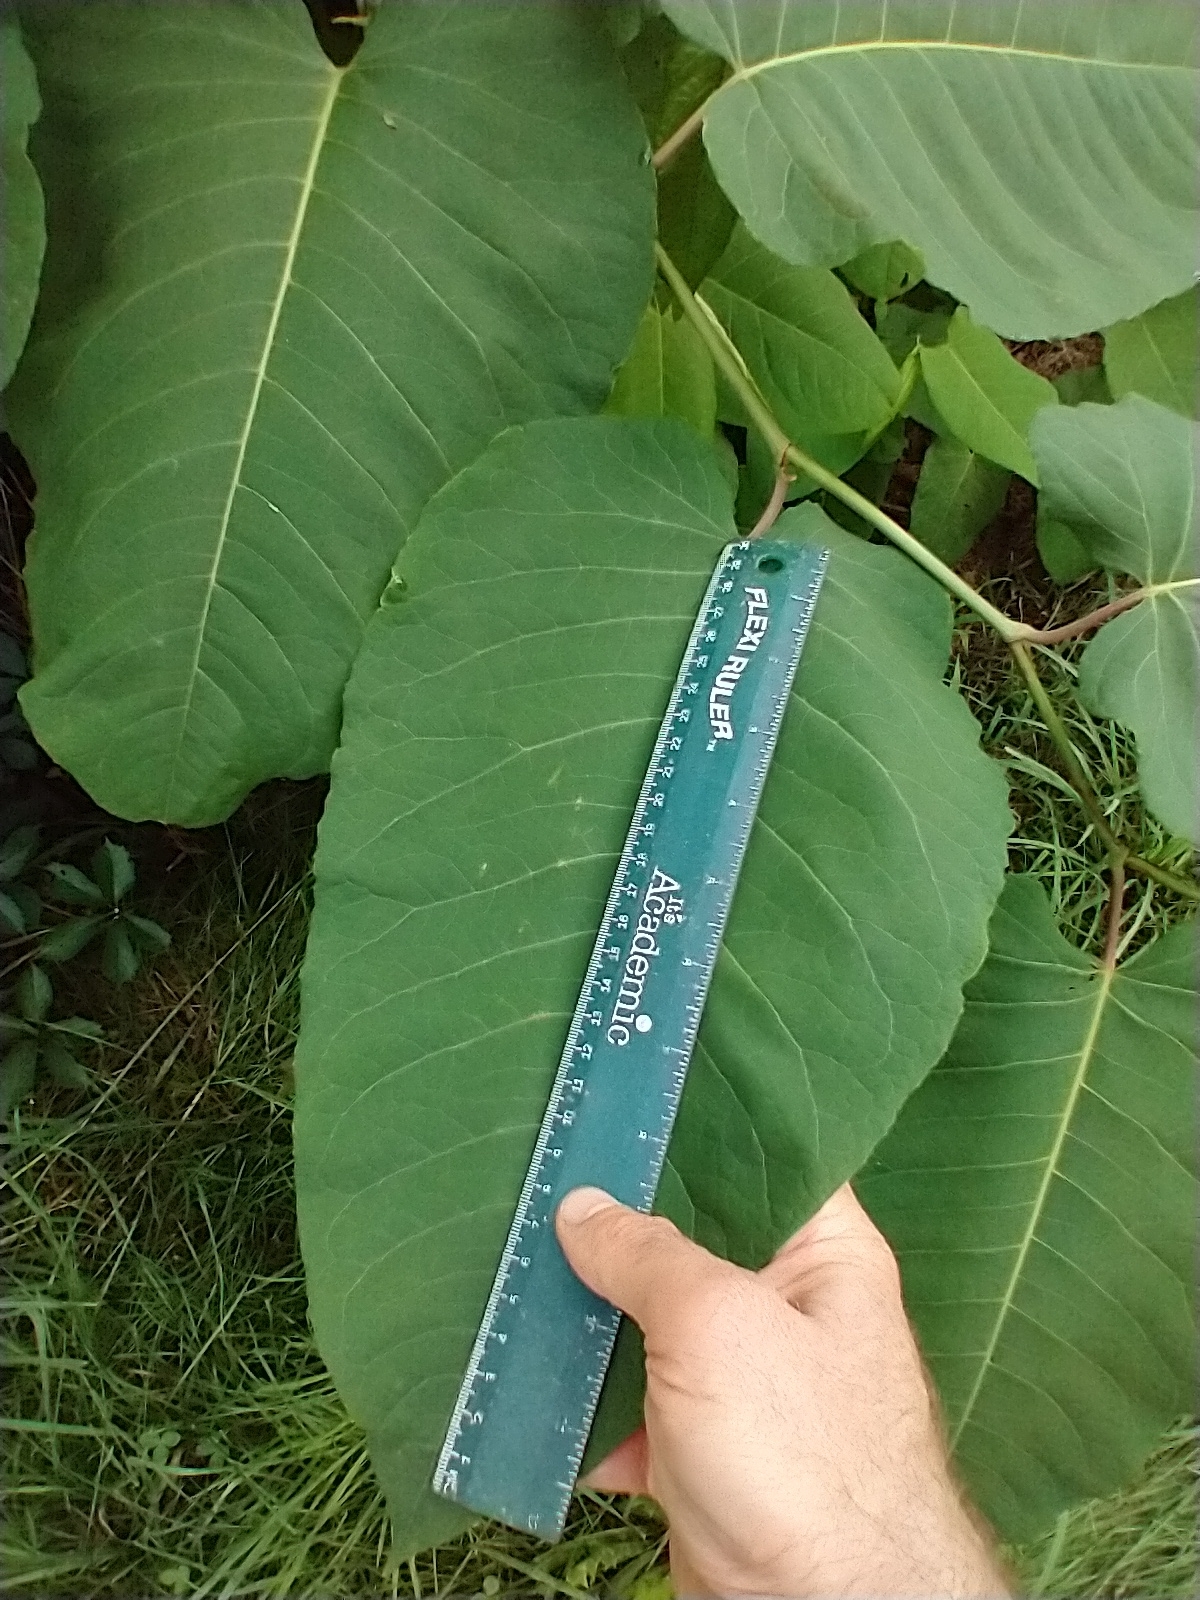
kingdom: Plantae
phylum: Tracheophyta
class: Magnoliopsida
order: Caryophyllales
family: Polygonaceae
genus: Reynoutria
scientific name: Reynoutria sachalinensis
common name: Giant knotweed
